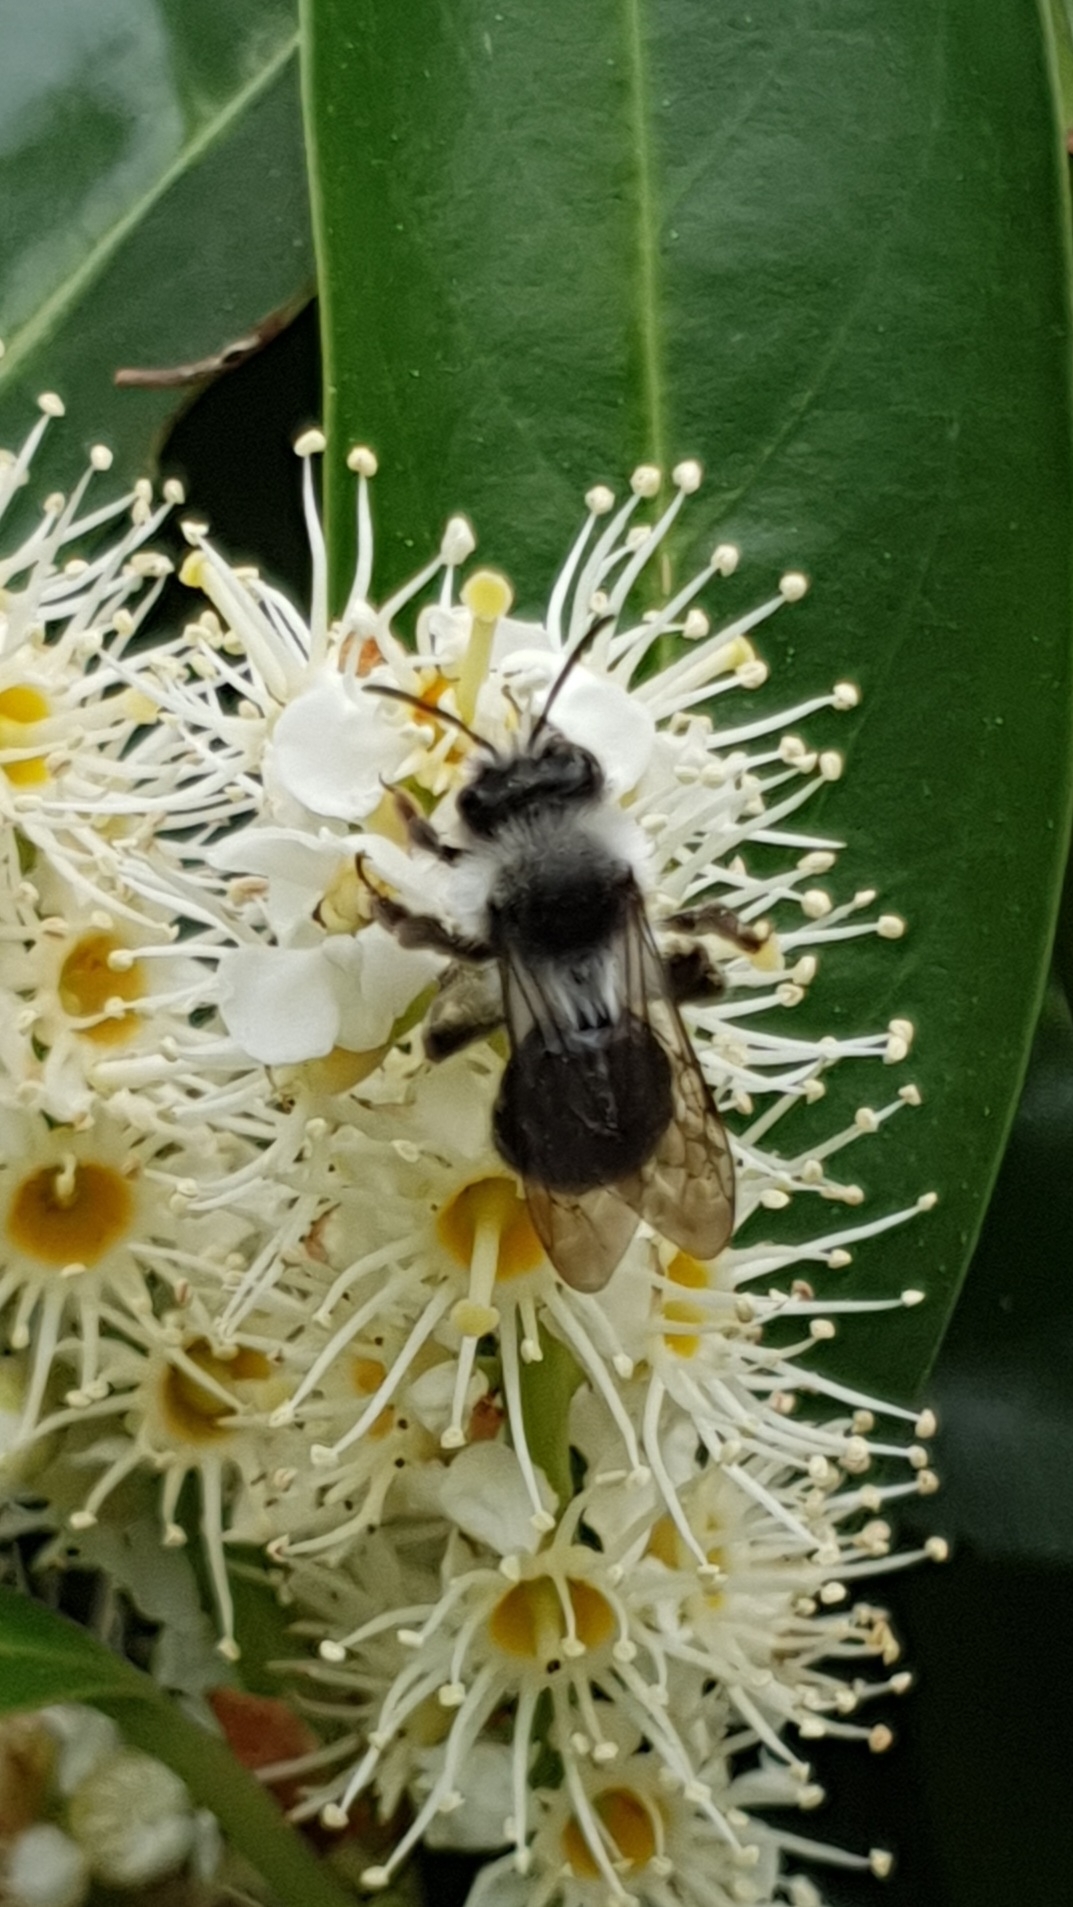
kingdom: Animalia
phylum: Arthropoda
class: Insecta
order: Hymenoptera
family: Andrenidae
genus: Andrena
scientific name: Andrena cineraria
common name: Ashy mining bee
